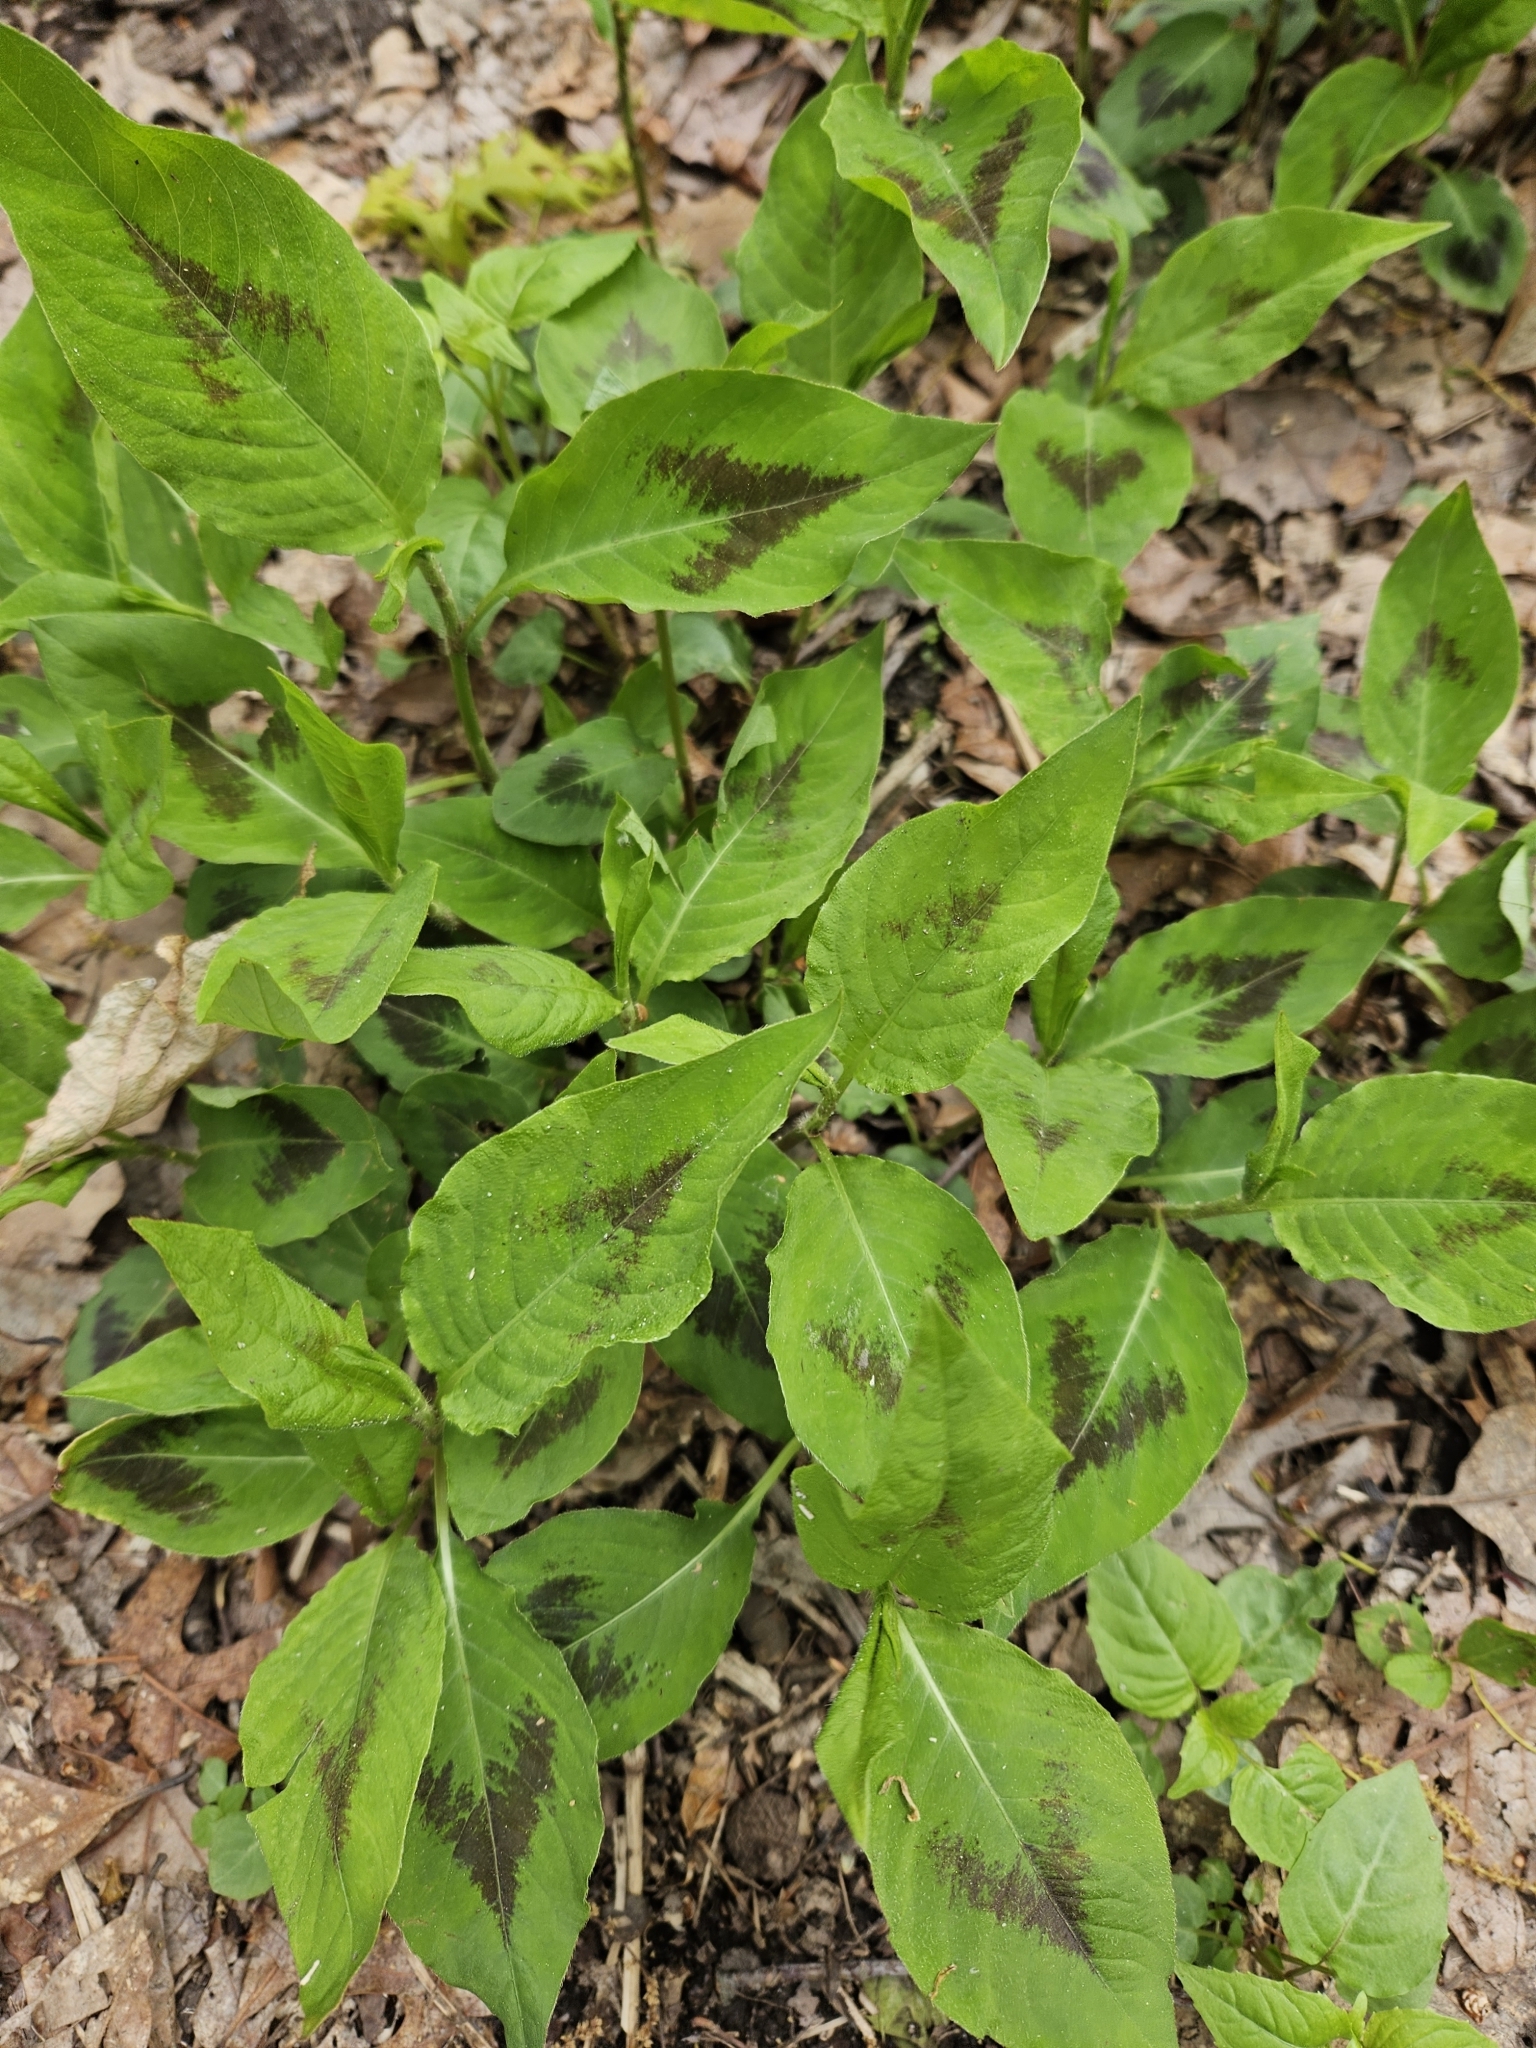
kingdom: Plantae
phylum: Tracheophyta
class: Magnoliopsida
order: Caryophyllales
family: Polygonaceae
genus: Persicaria
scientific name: Persicaria virginiana
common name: Jumpseed
